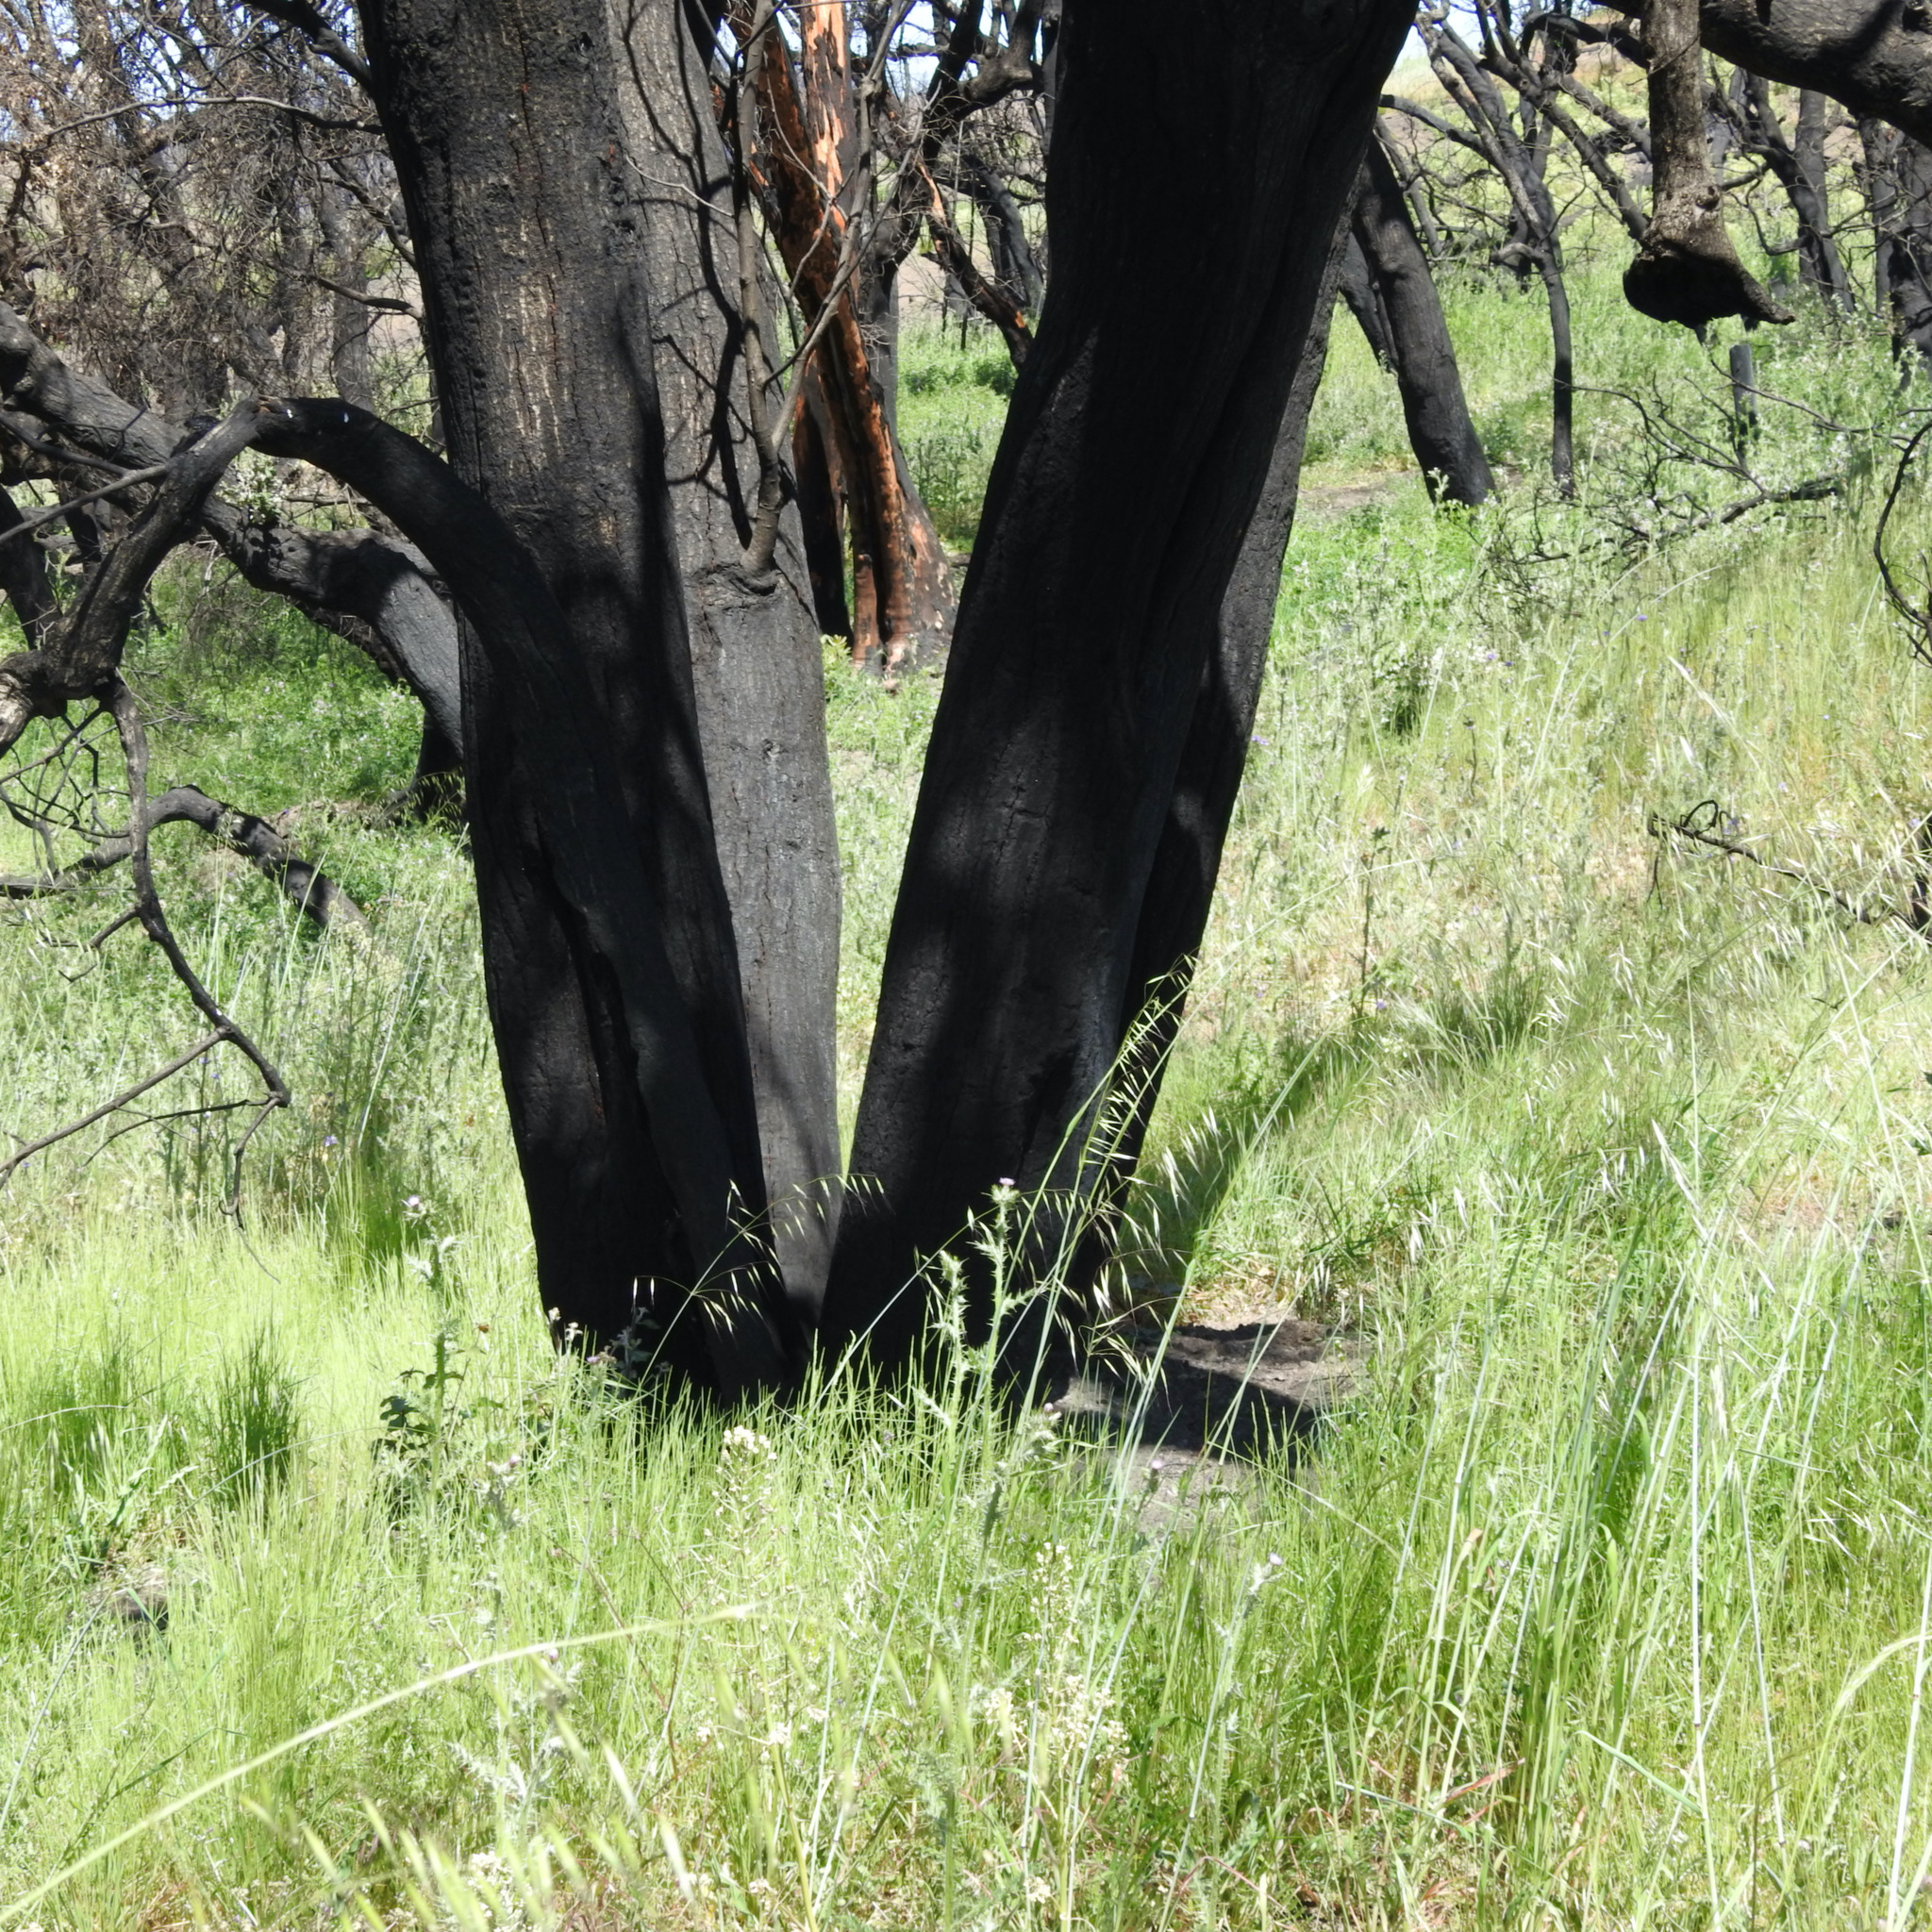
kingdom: Plantae
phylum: Tracheophyta
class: Liliopsida
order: Poales
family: Poaceae
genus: Avena
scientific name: Avena barbata
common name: Slender oat
